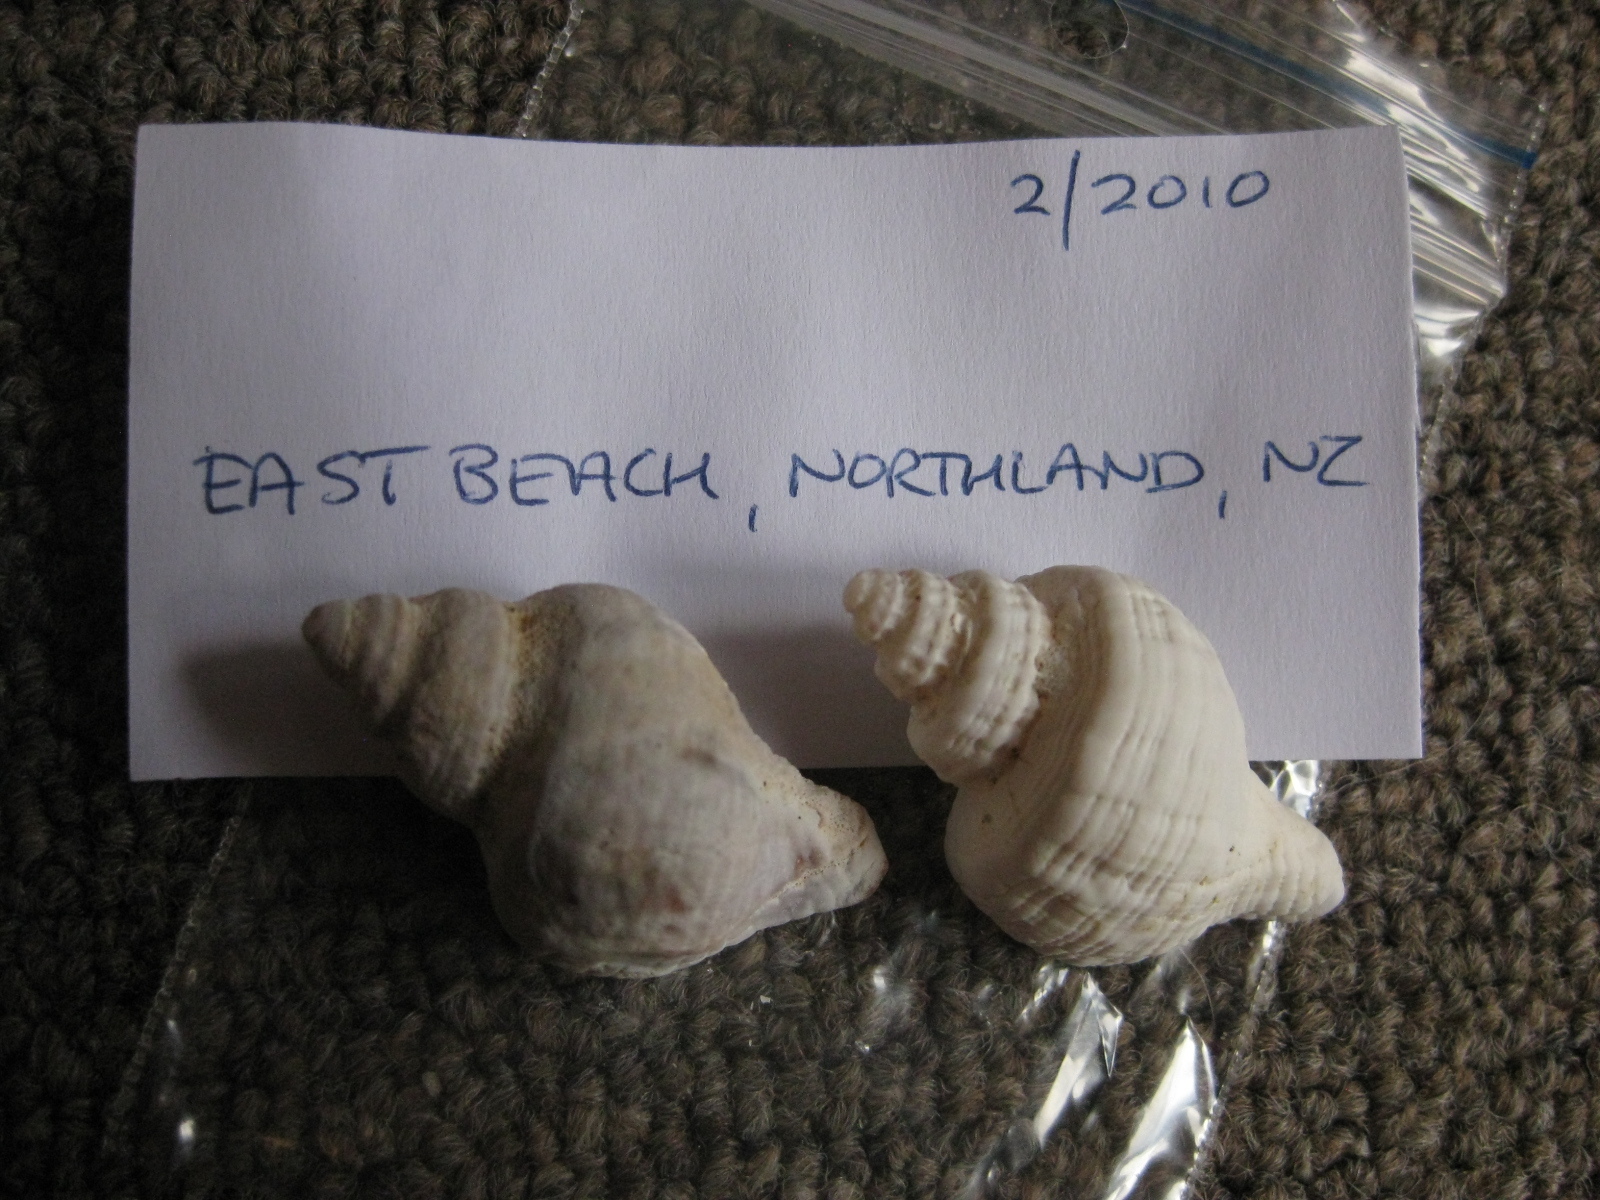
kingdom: Animalia
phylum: Mollusca
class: Gastropoda
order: Neogastropoda
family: Muricidae
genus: Zeatrophon
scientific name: Zeatrophon ambiguus
